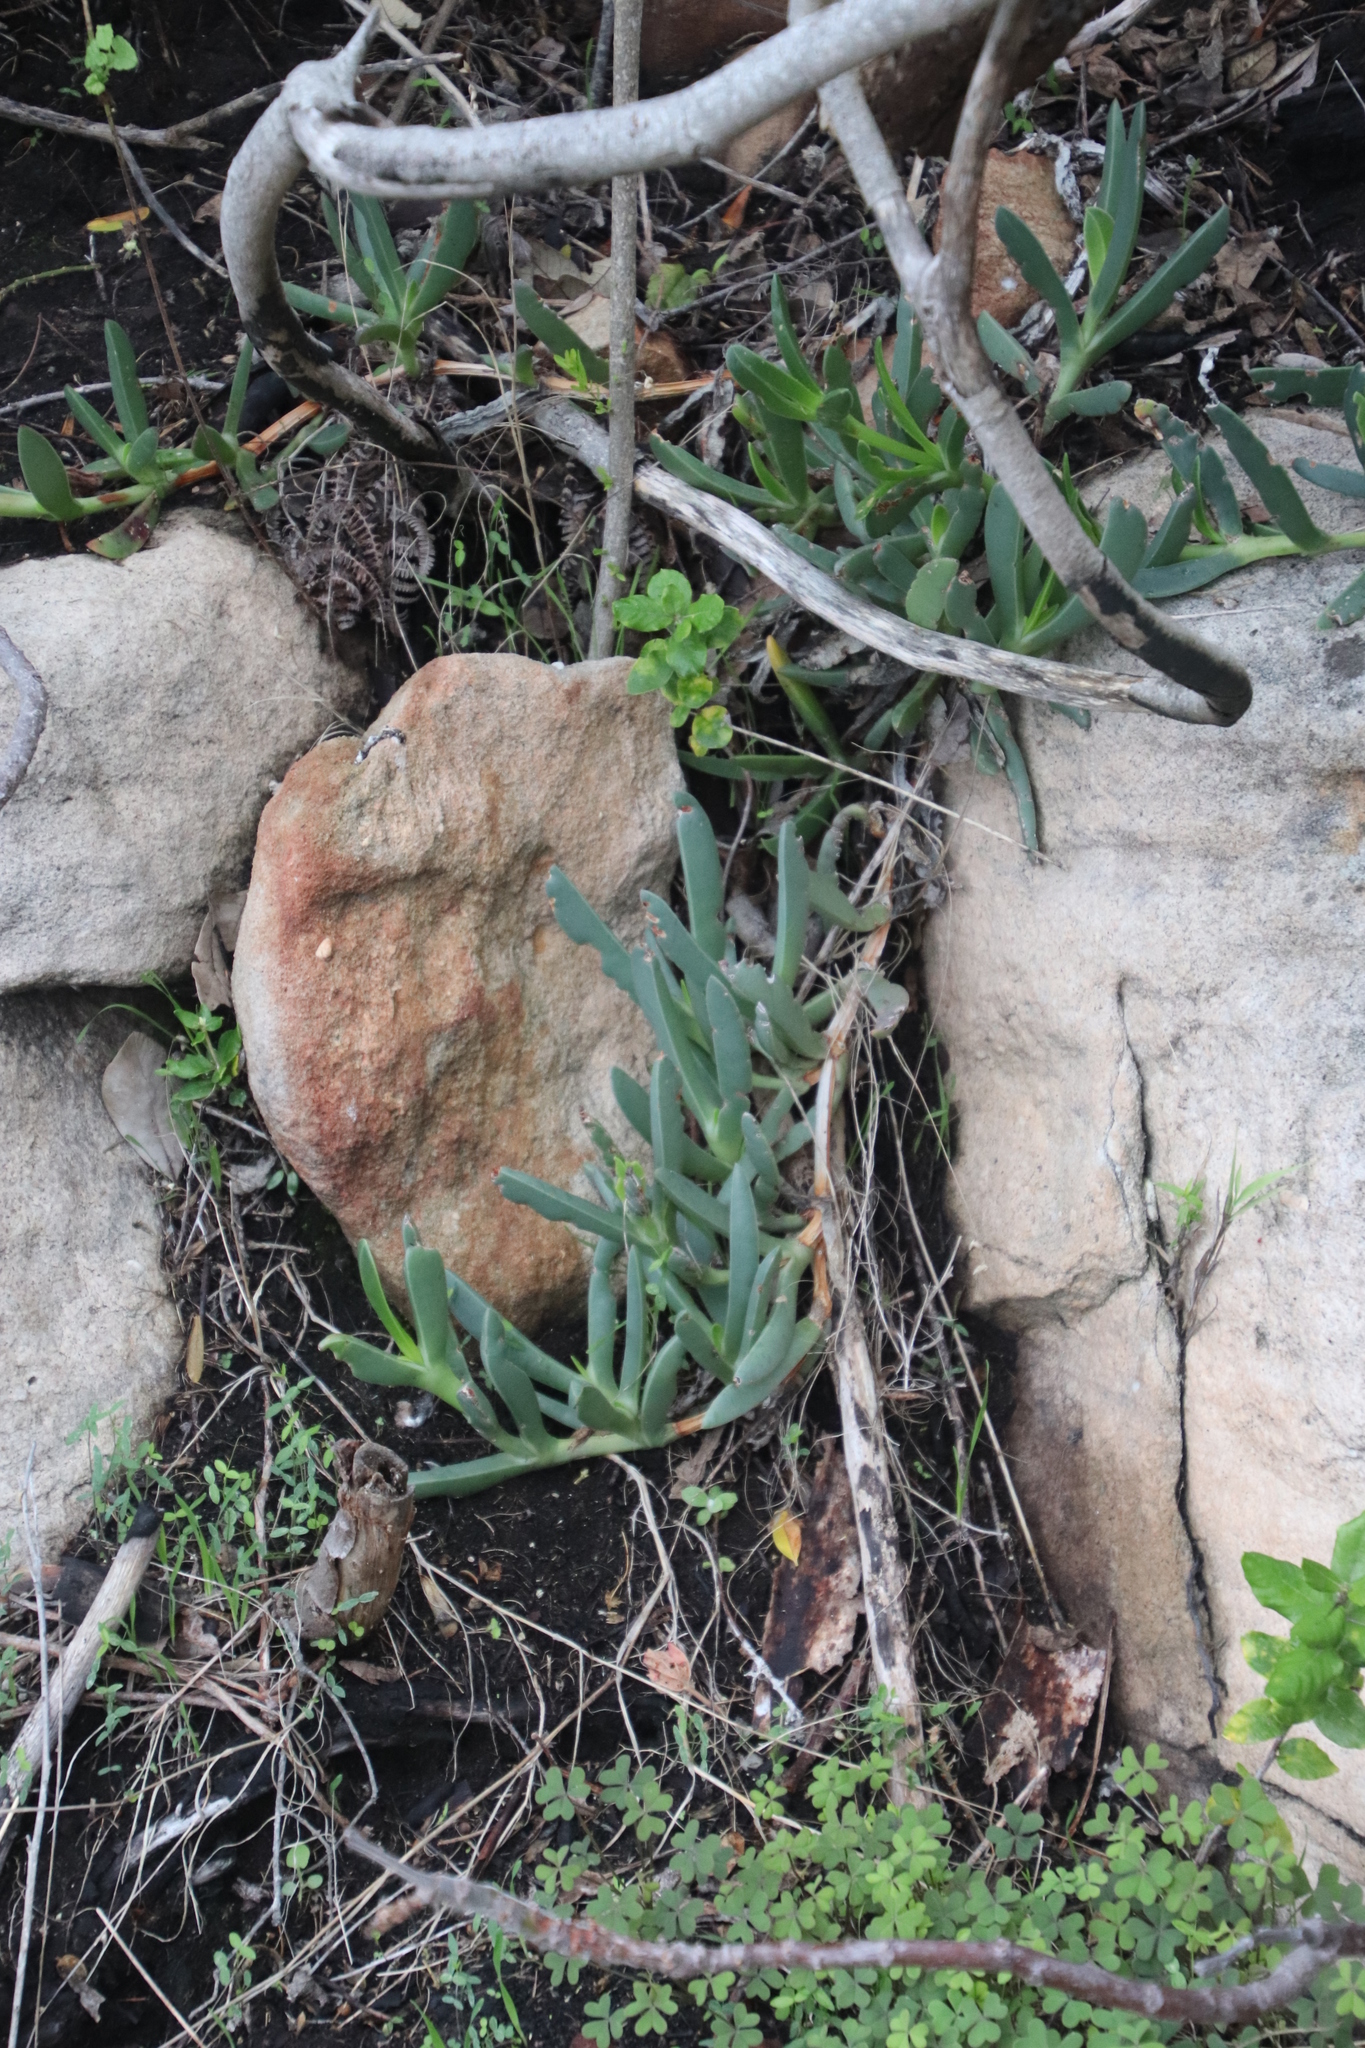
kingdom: Plantae
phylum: Tracheophyta
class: Magnoliopsida
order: Caryophyllales
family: Aizoaceae
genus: Carpobrotus
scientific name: Carpobrotus acinaciformis
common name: Sally-my-handsome
